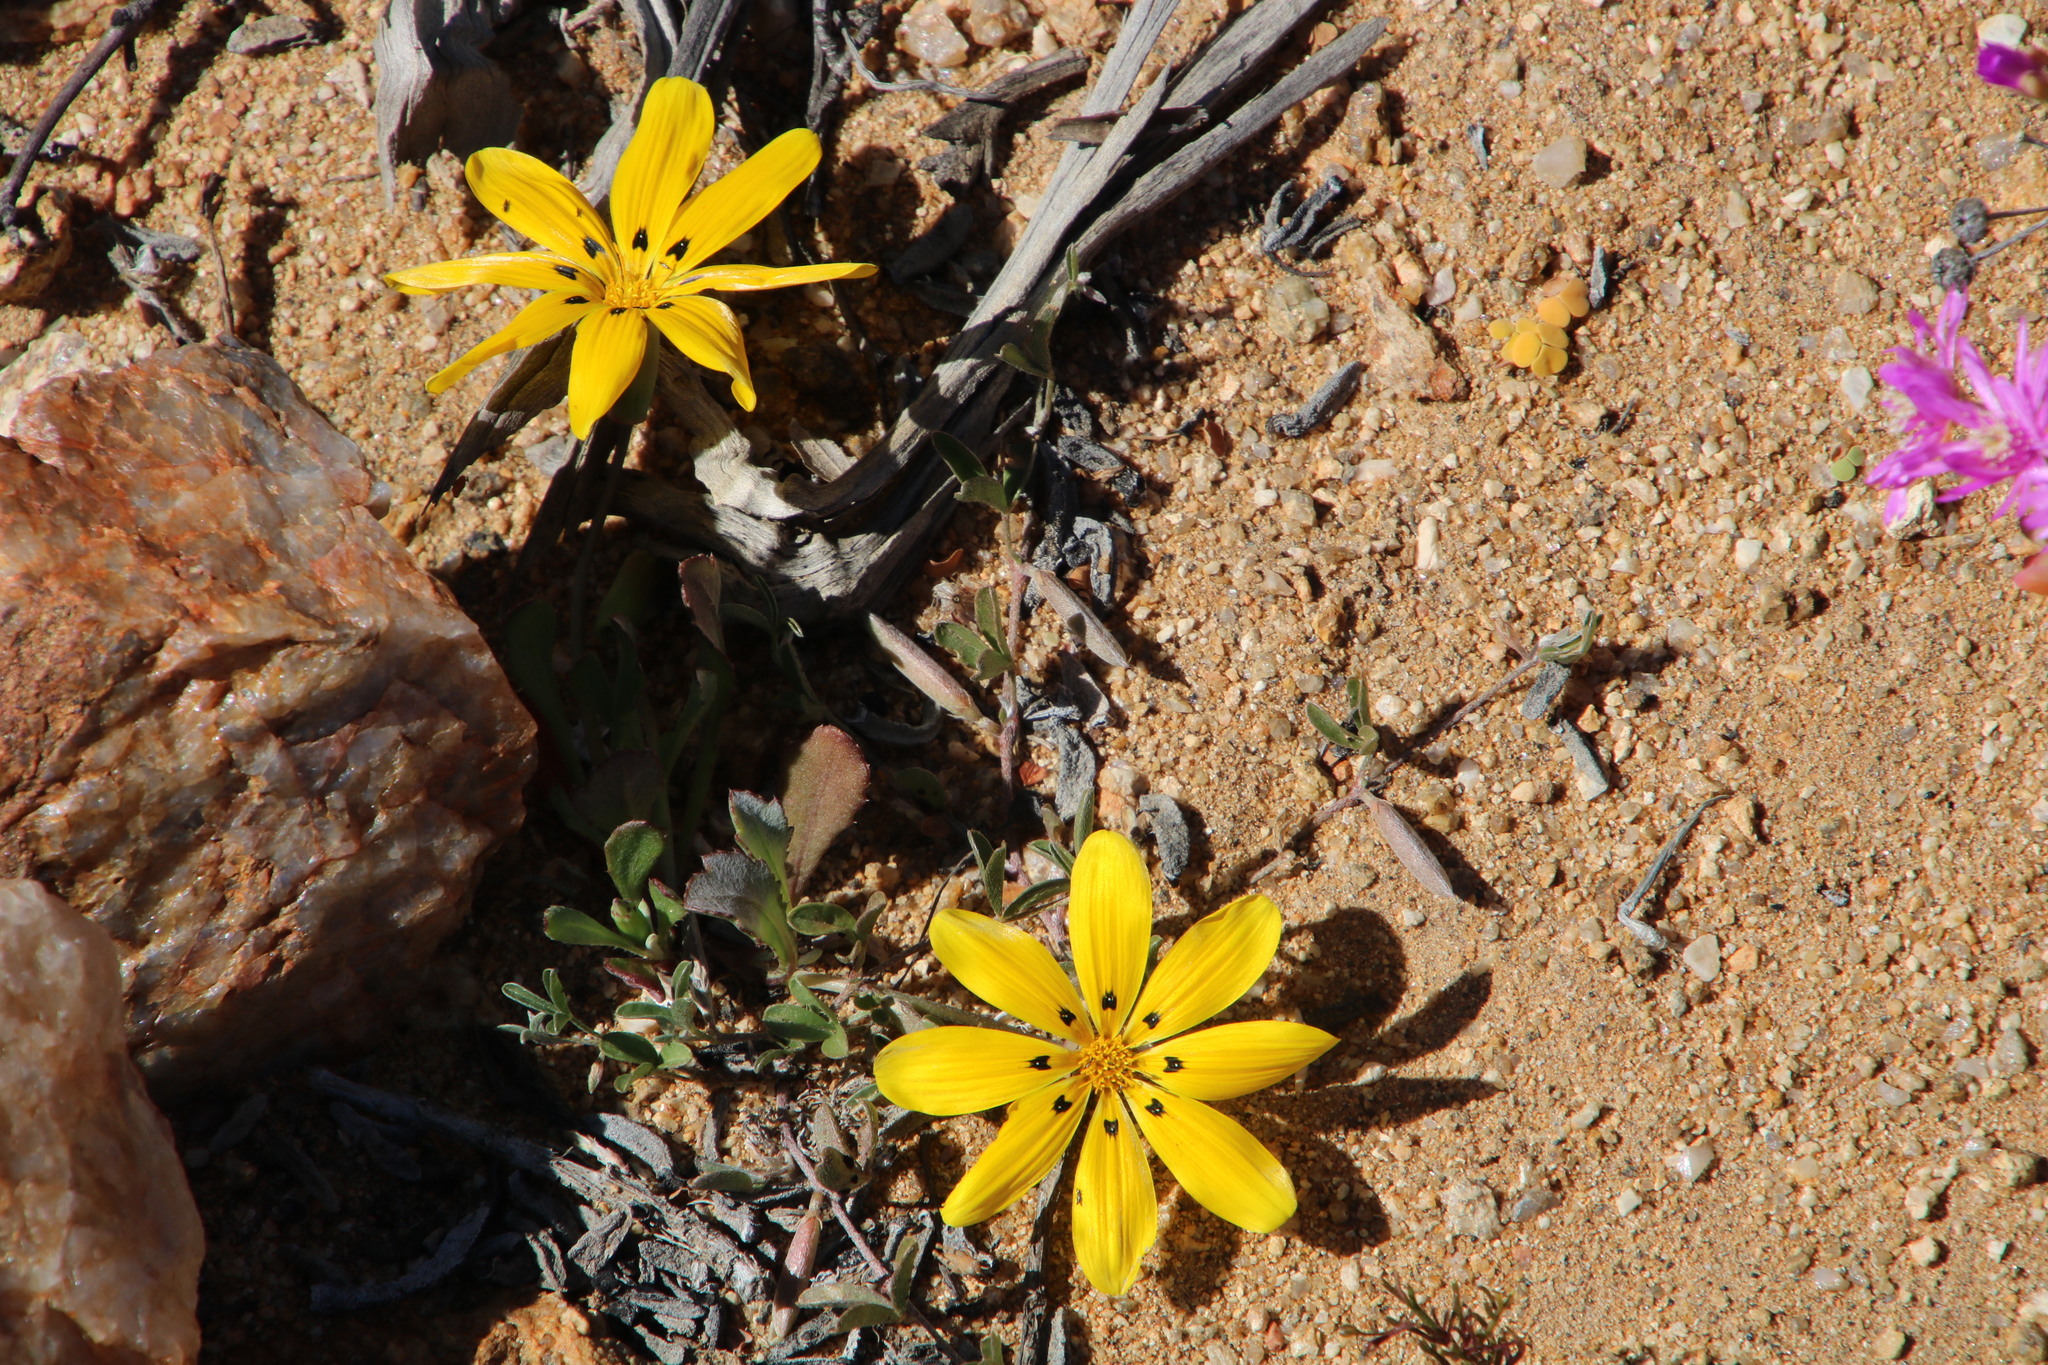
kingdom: Plantae
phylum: Tracheophyta
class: Magnoliopsida
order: Asterales
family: Asteraceae
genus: Gazania
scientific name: Gazania lichtensteinii
